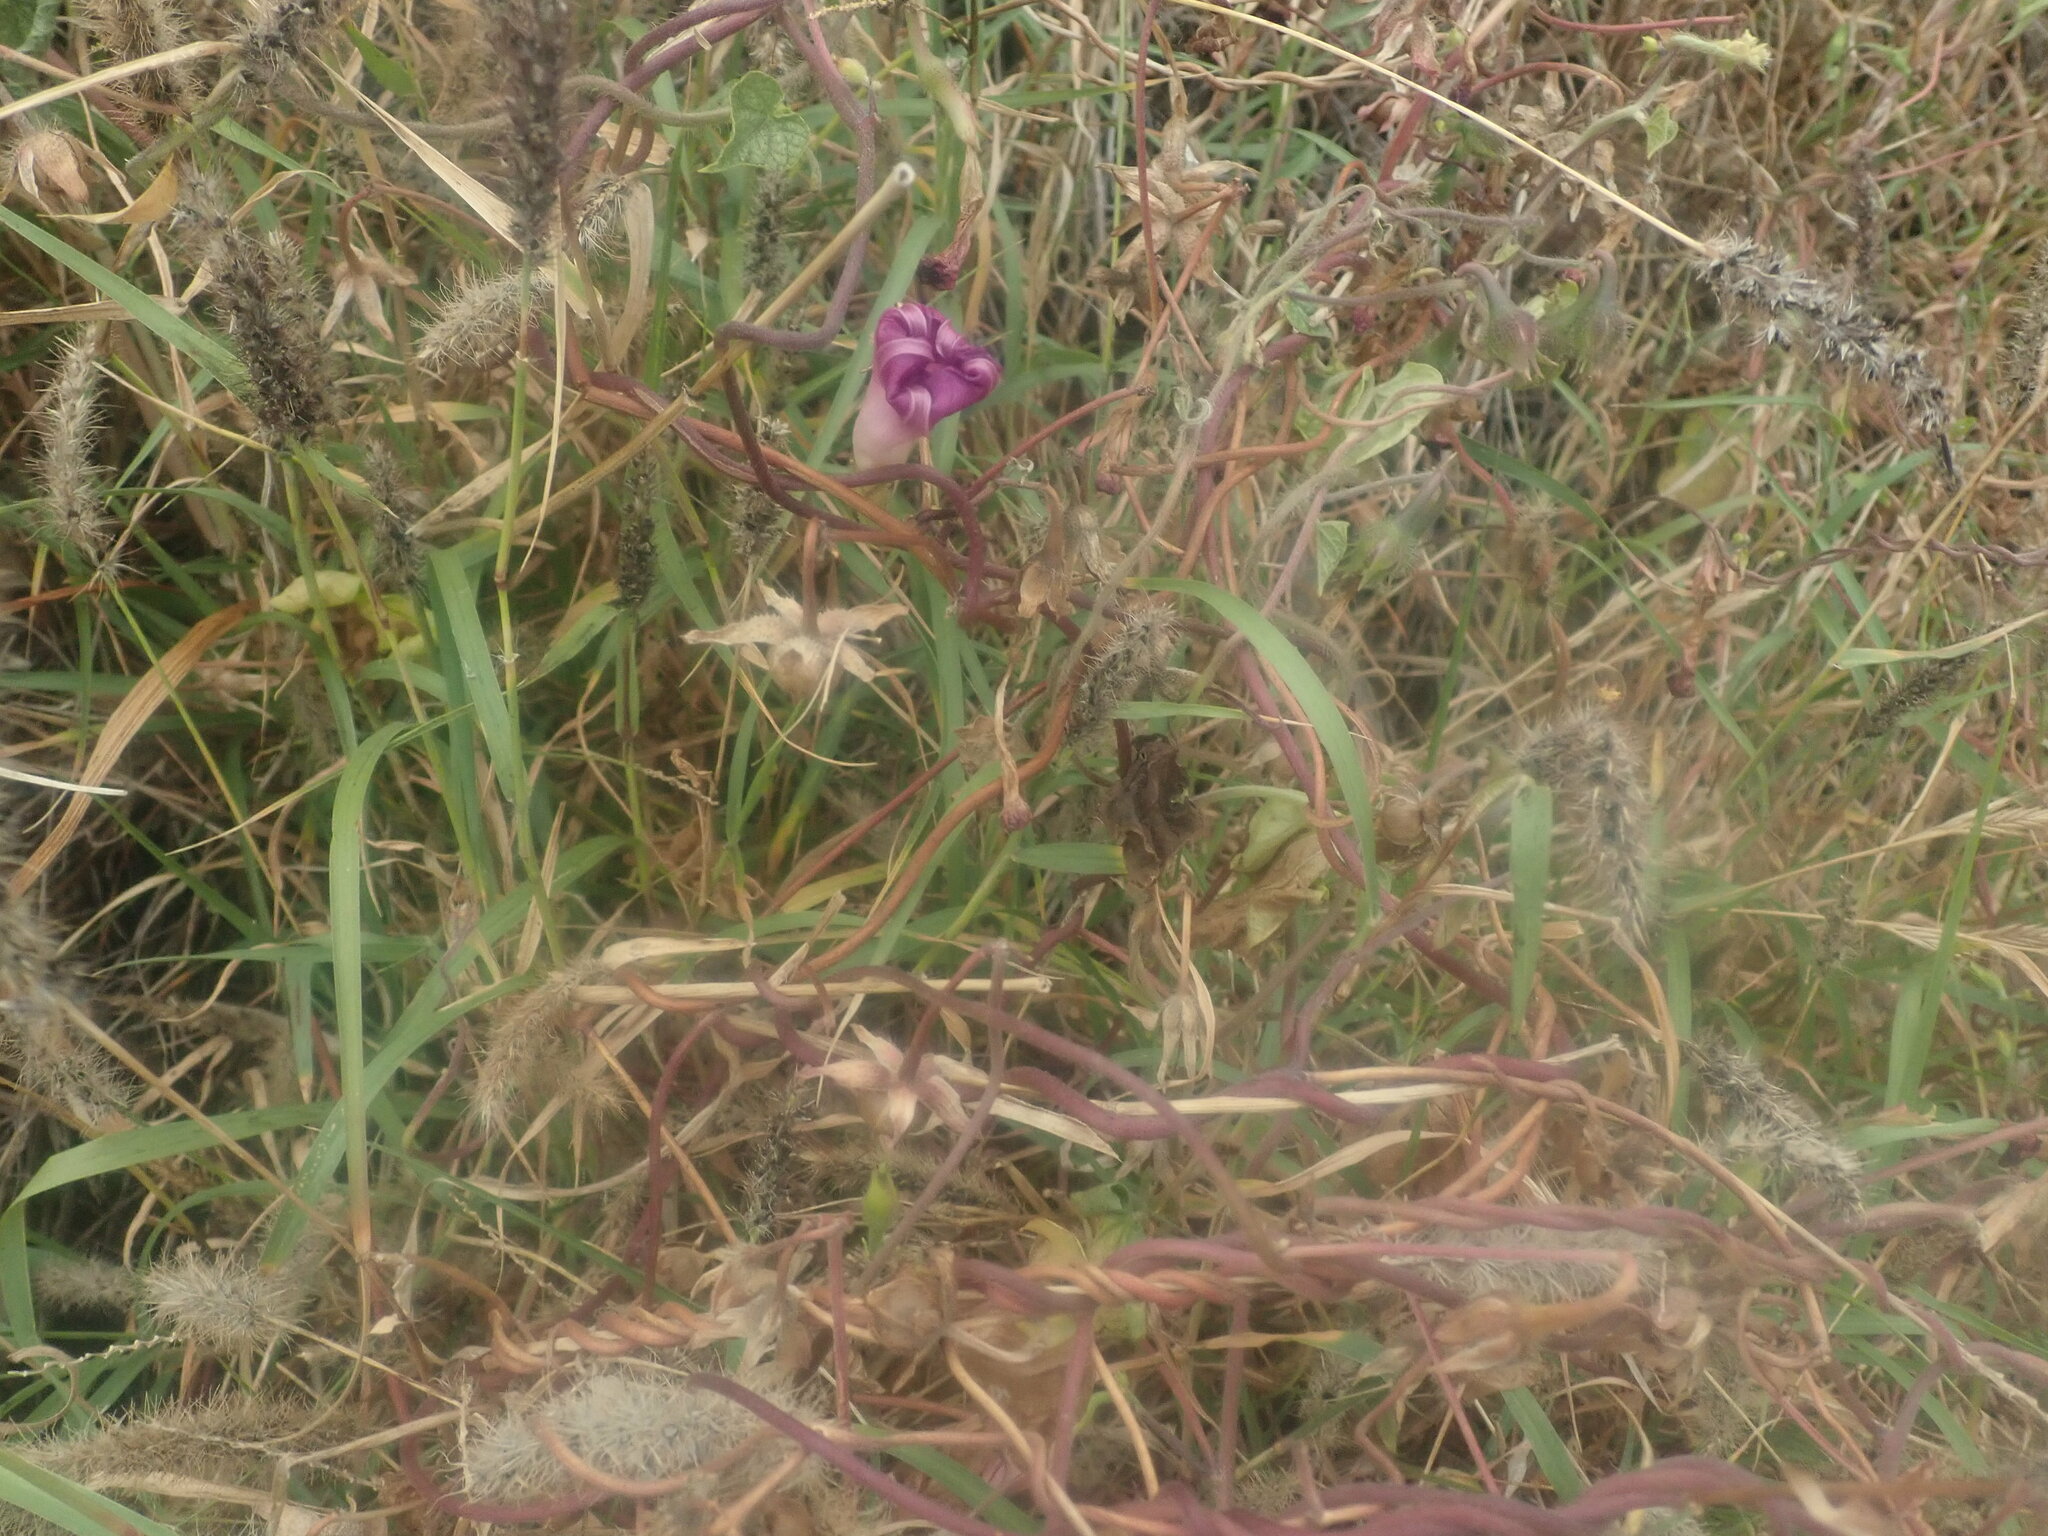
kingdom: Plantae
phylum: Tracheophyta
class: Magnoliopsida
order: Solanales
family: Convolvulaceae
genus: Ipomoea
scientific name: Ipomoea purpurea
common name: Common morning-glory
